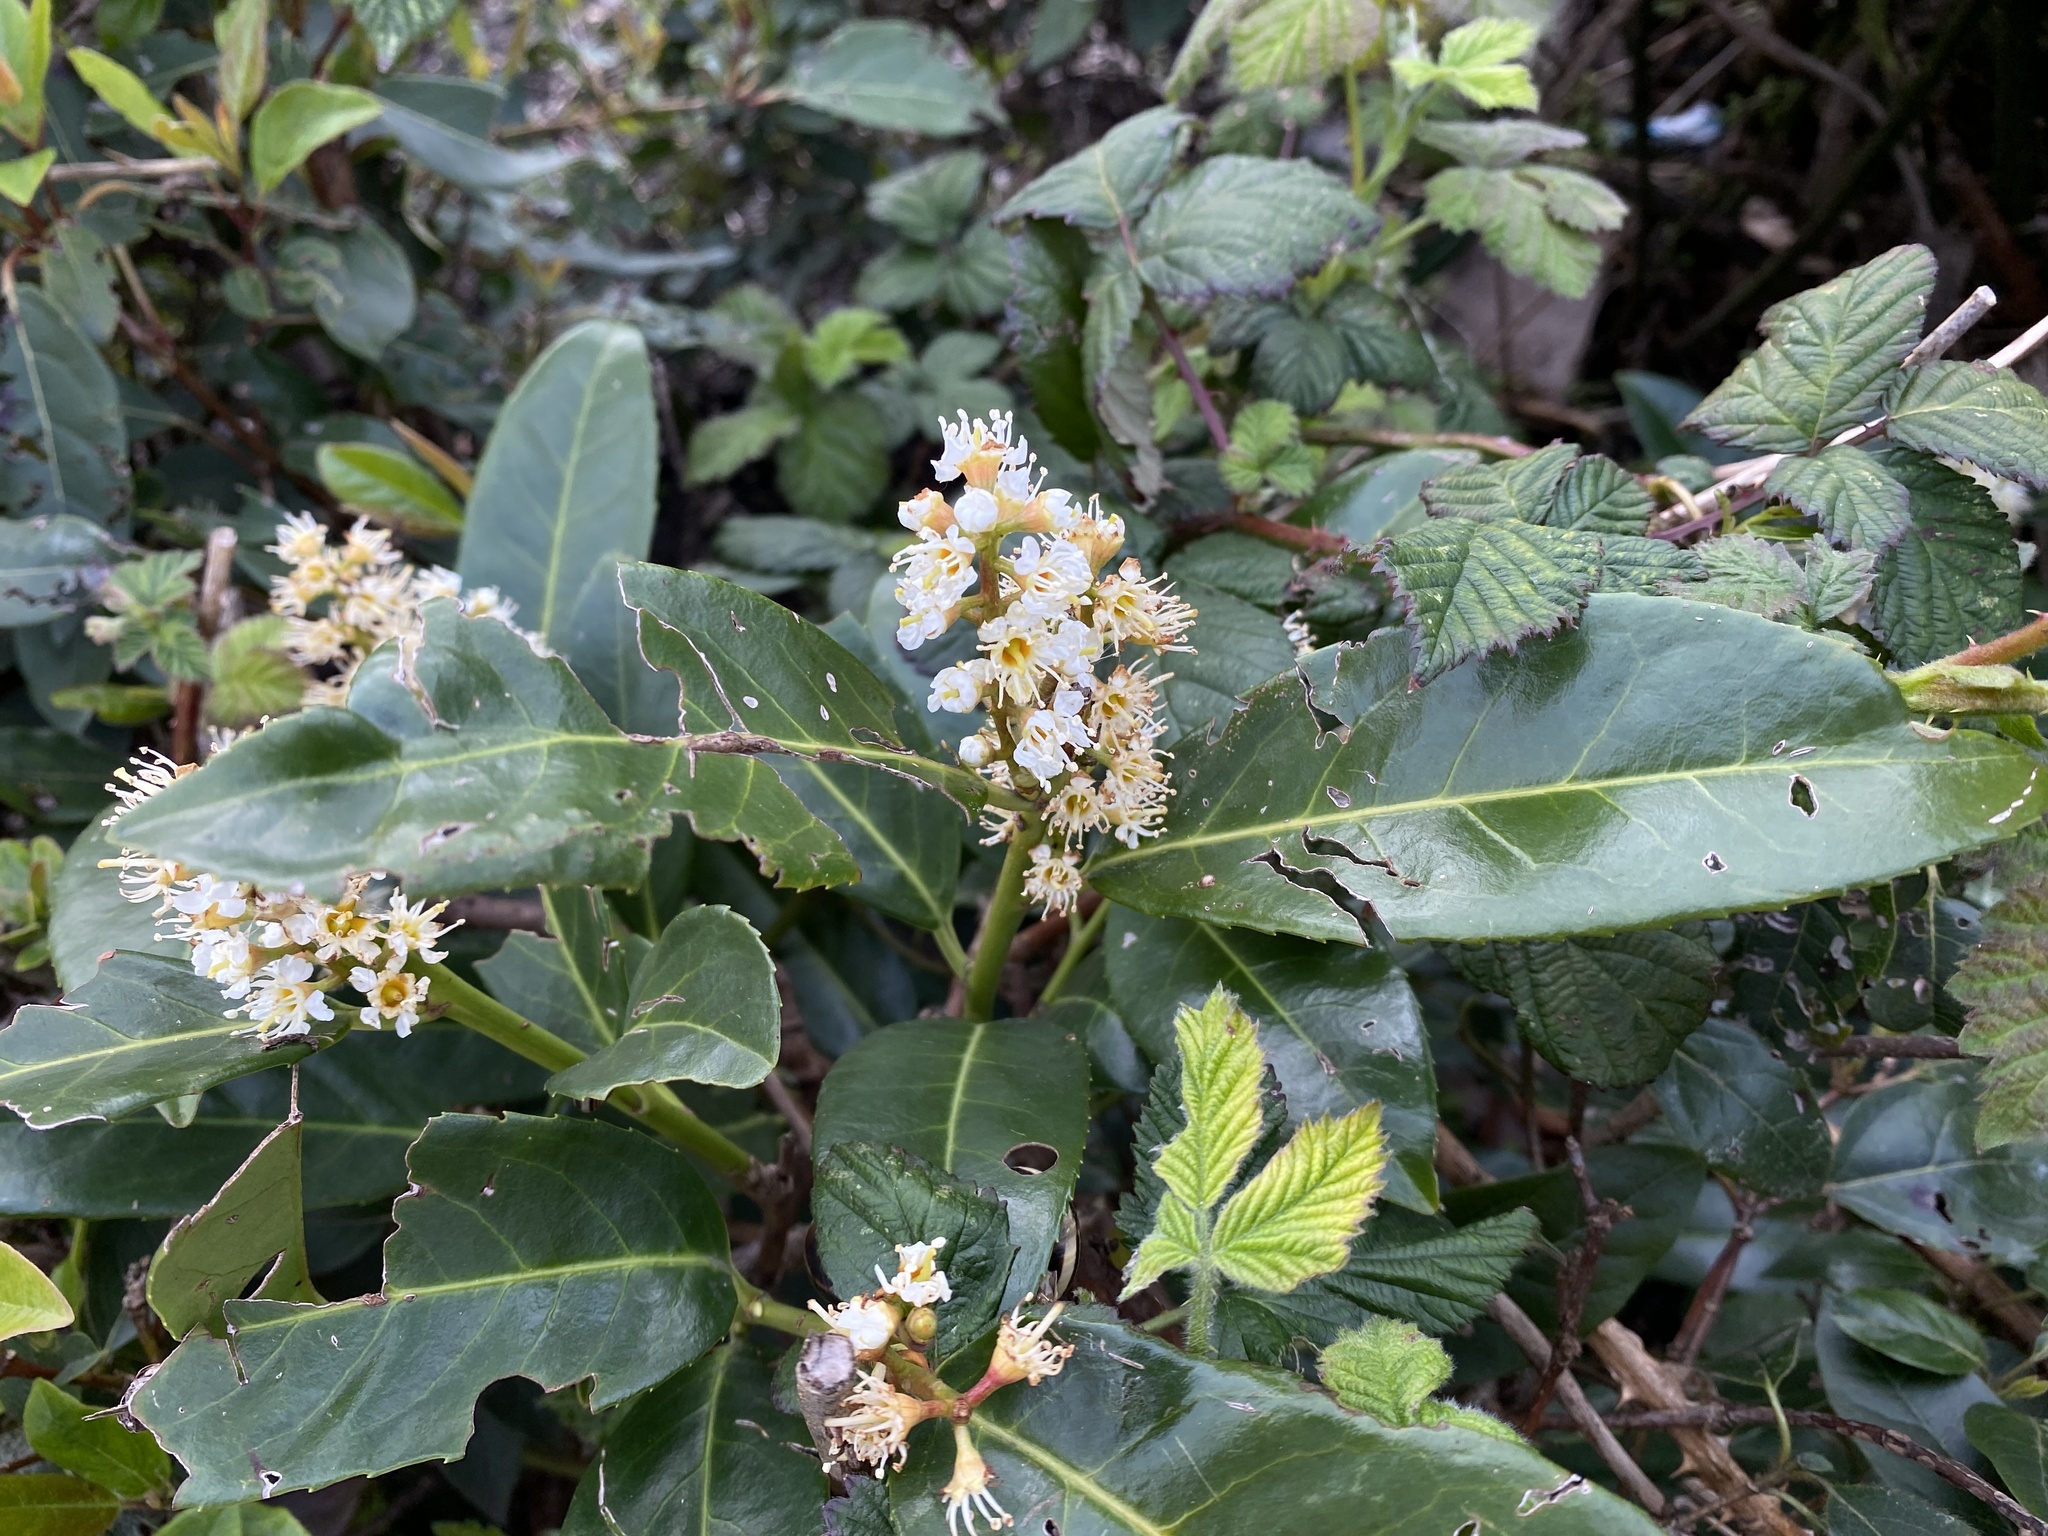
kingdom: Plantae
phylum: Tracheophyta
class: Magnoliopsida
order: Rosales
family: Rosaceae
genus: Prunus
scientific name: Prunus laurocerasus
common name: Cherry laurel
